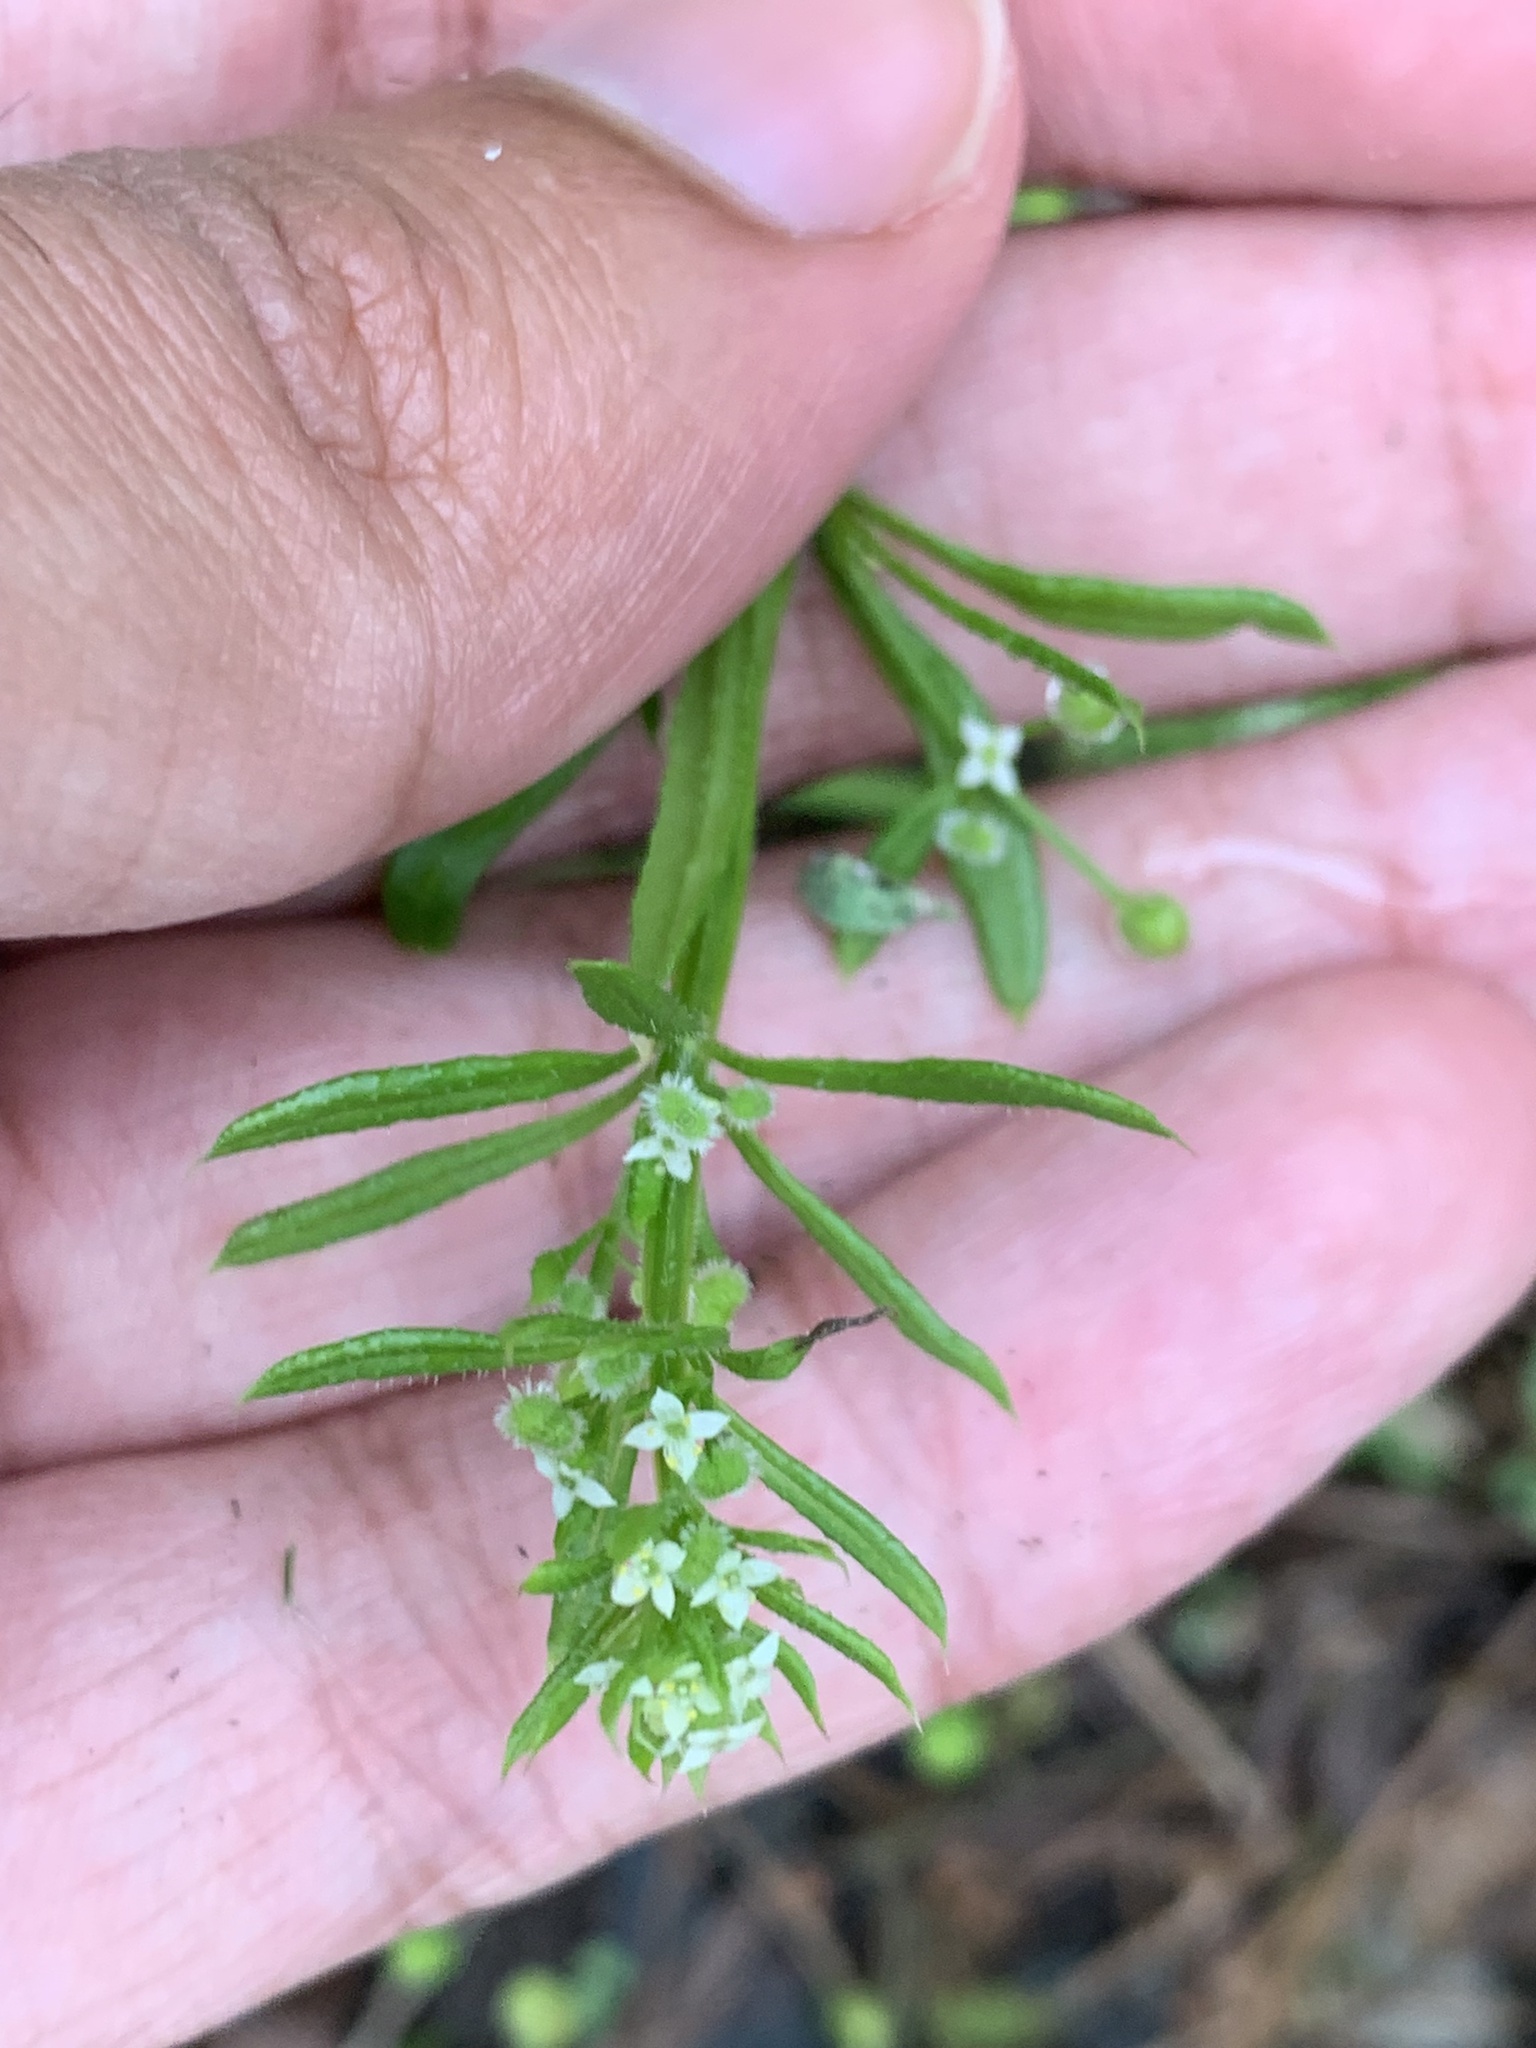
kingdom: Plantae
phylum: Tracheophyta
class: Magnoliopsida
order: Gentianales
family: Rubiaceae
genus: Galium
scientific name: Galium aparine
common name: Cleavers
